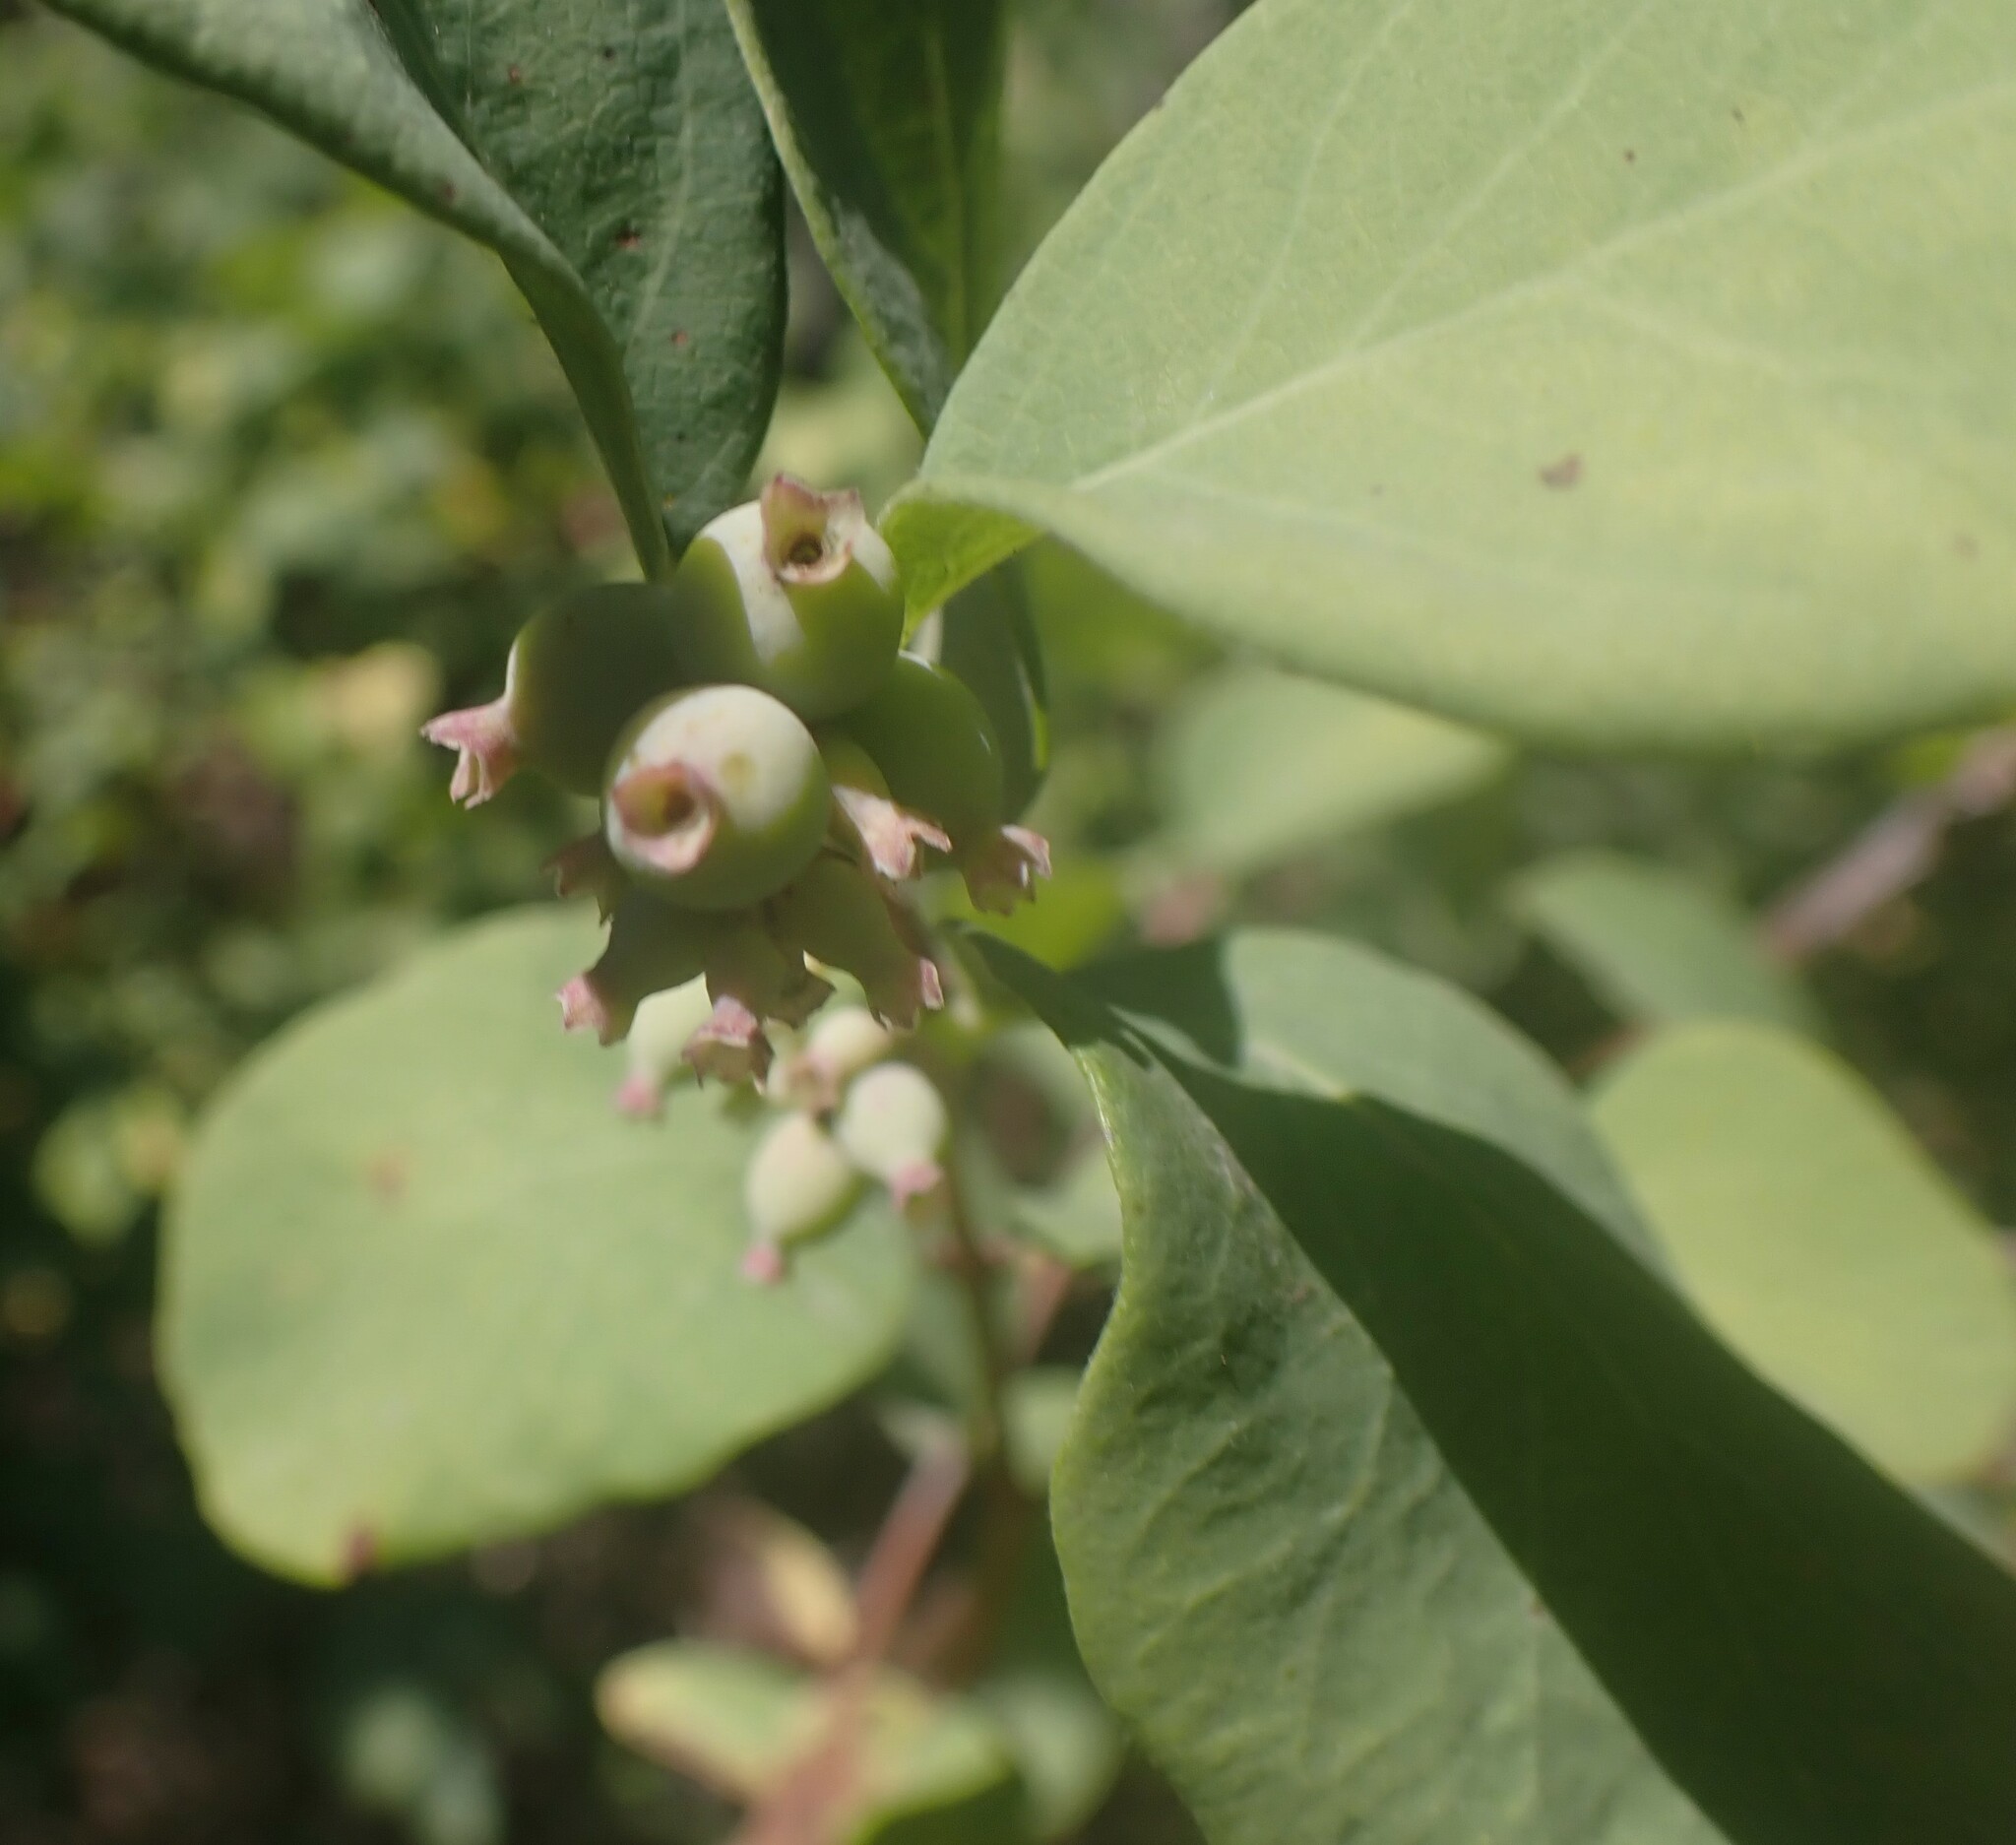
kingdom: Plantae
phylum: Tracheophyta
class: Magnoliopsida
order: Dipsacales
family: Caprifoliaceae
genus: Symphoricarpos
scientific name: Symphoricarpos occidentalis
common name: Wolfberry
